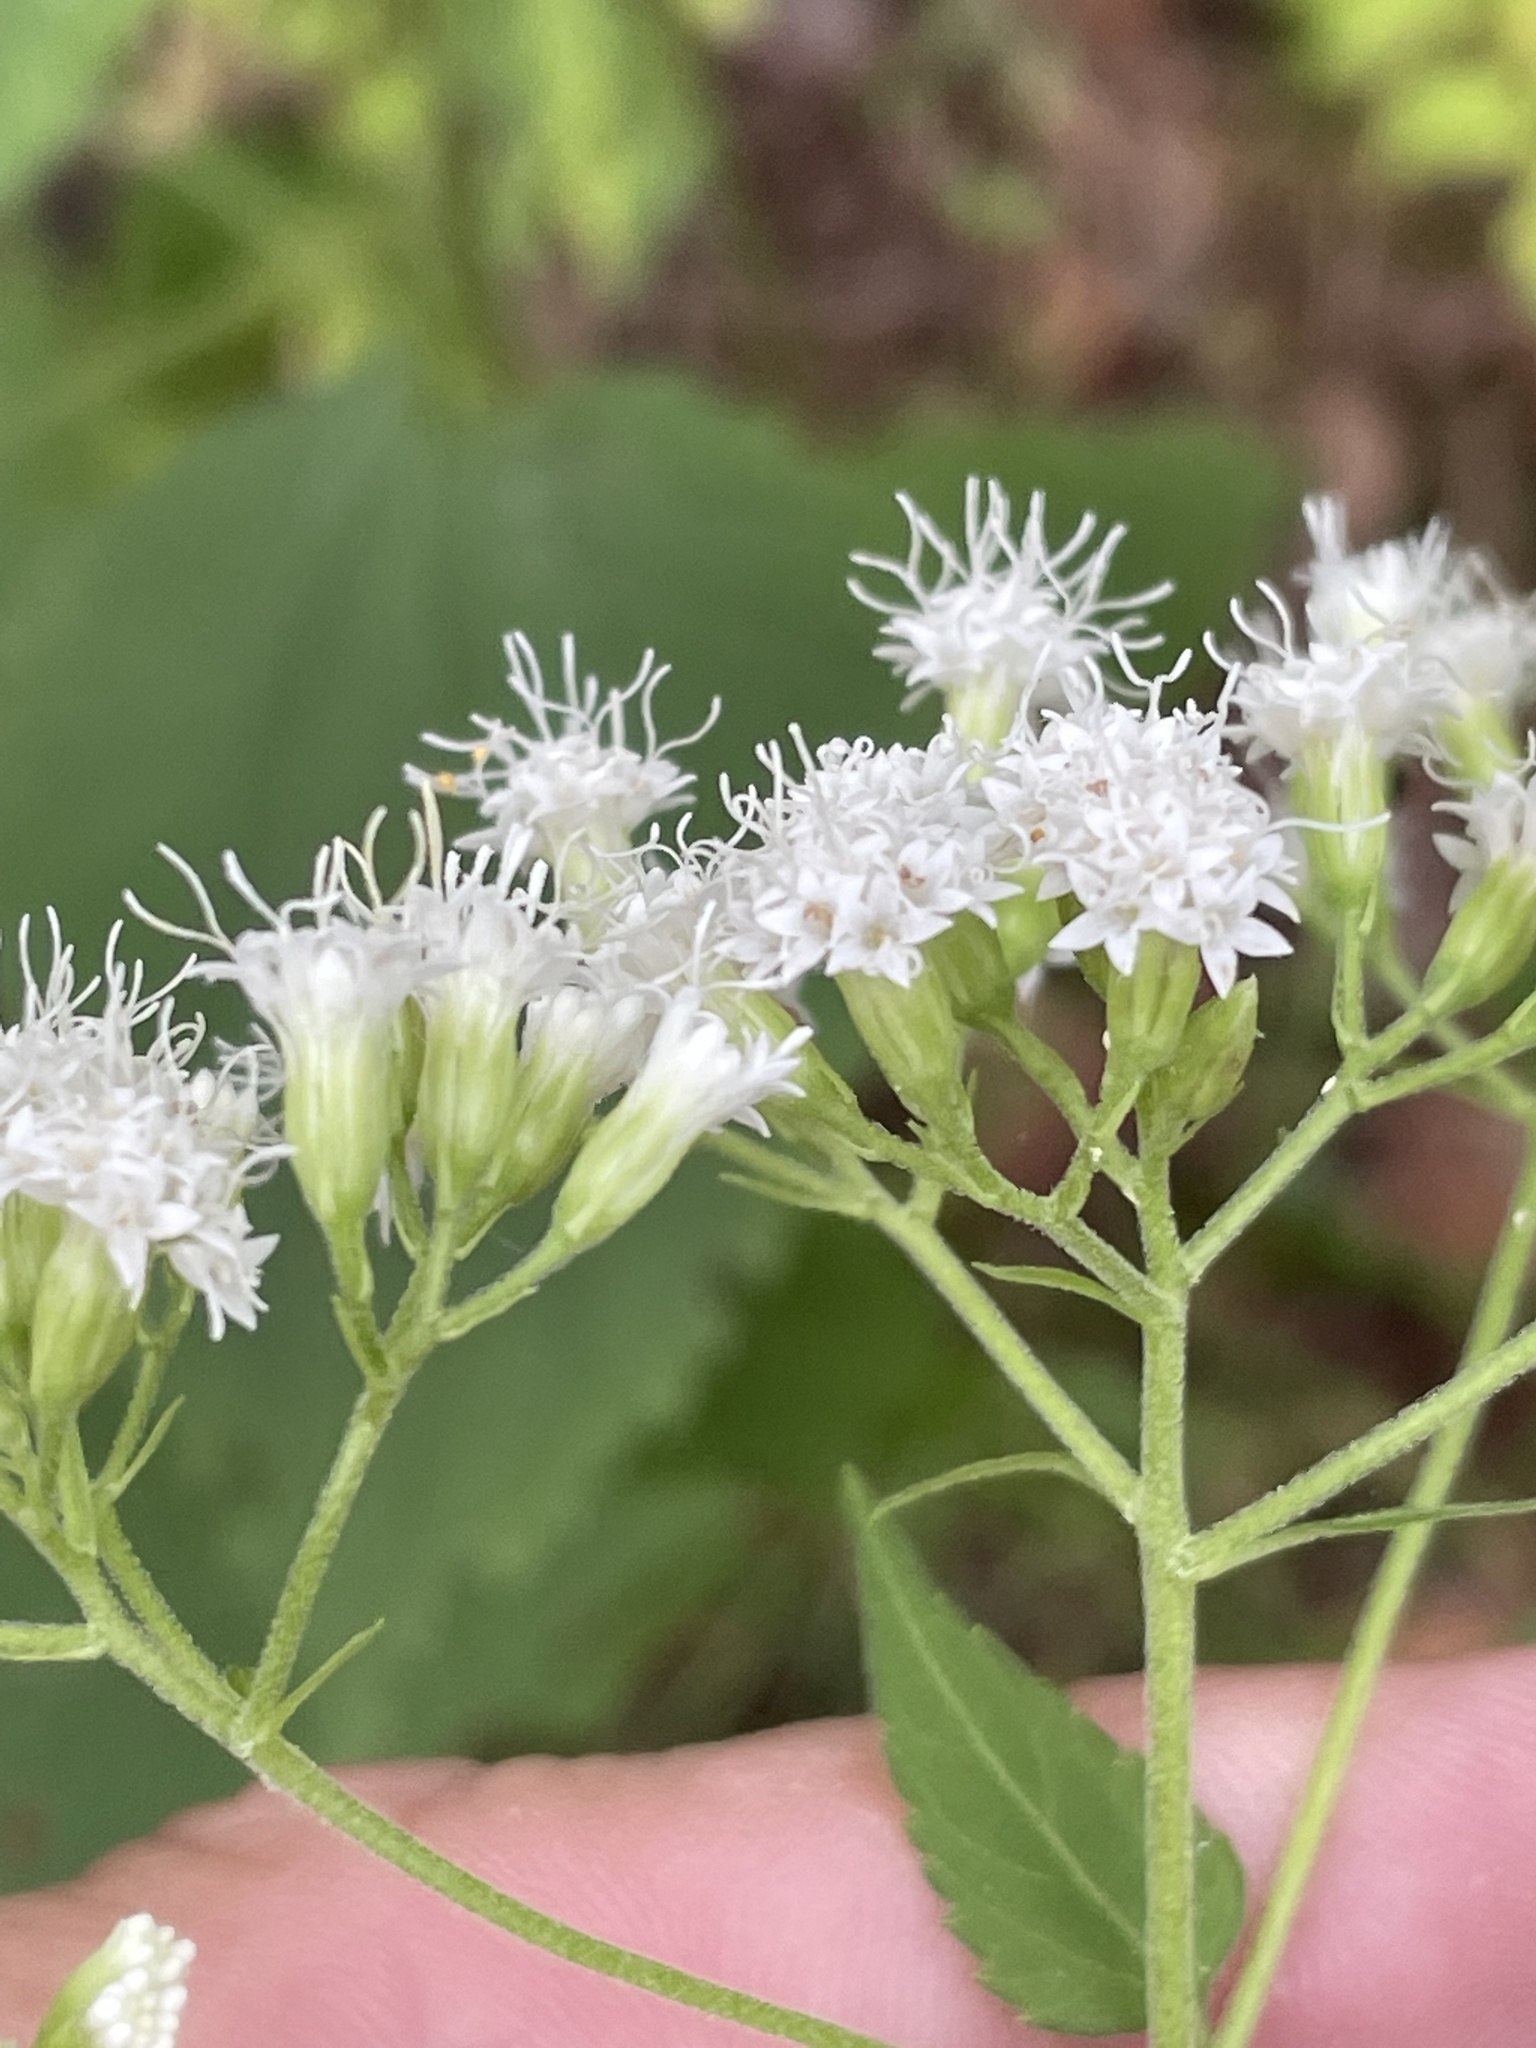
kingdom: Plantae
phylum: Tracheophyta
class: Magnoliopsida
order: Asterales
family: Asteraceae
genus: Ageratina
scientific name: Ageratina altissima
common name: White snakeroot
